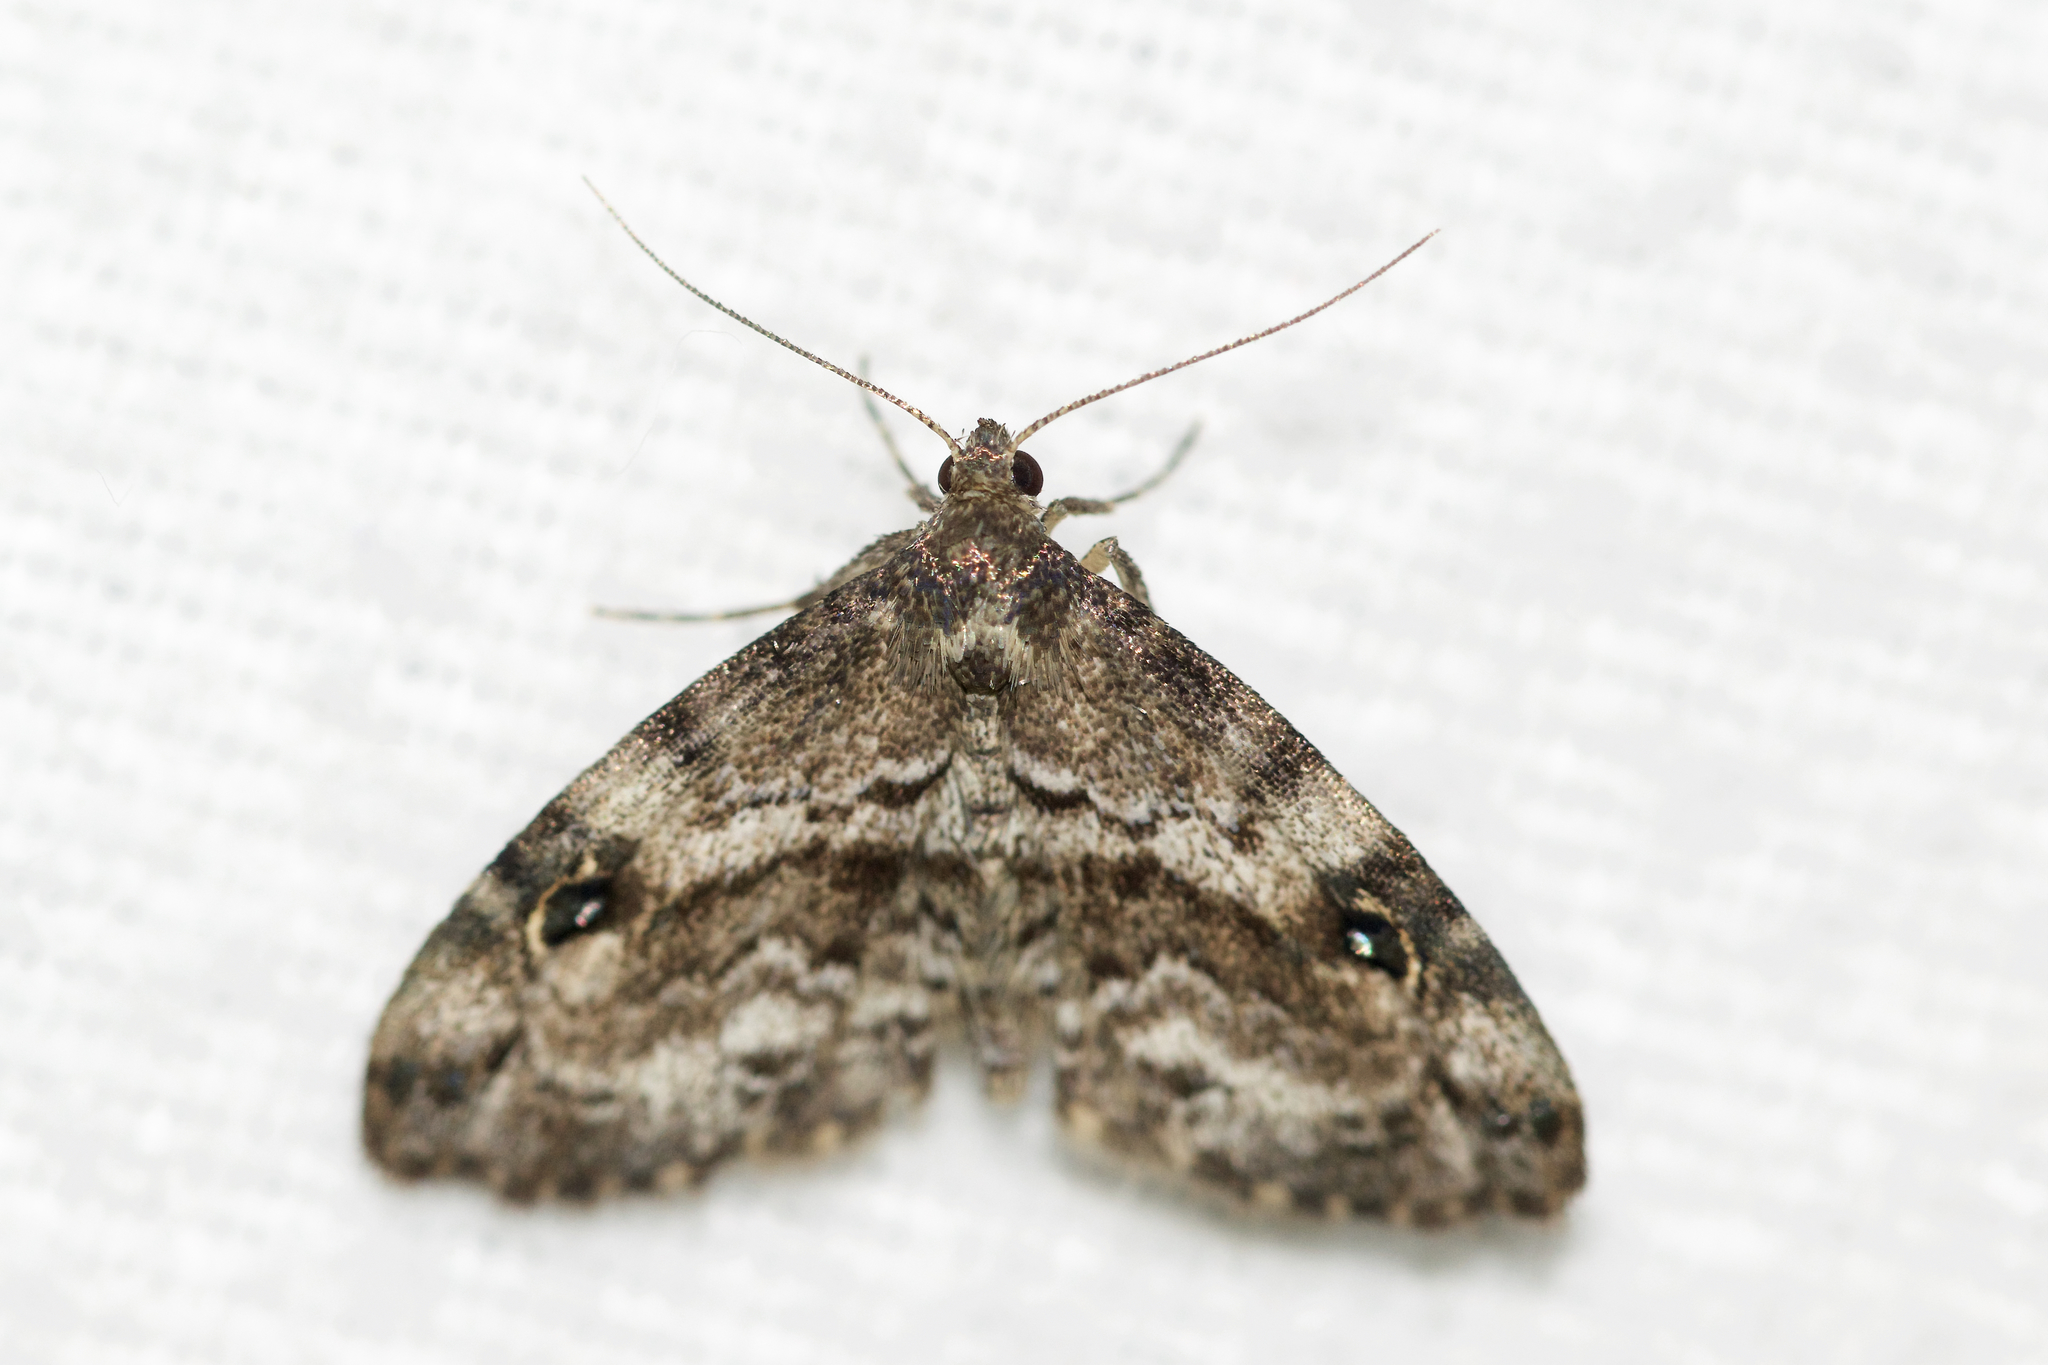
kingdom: Animalia
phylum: Arthropoda
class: Insecta
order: Lepidoptera
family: Erebidae
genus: Melanomma
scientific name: Melanomma auricinctaria
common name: Gold-lined melanomma moth
